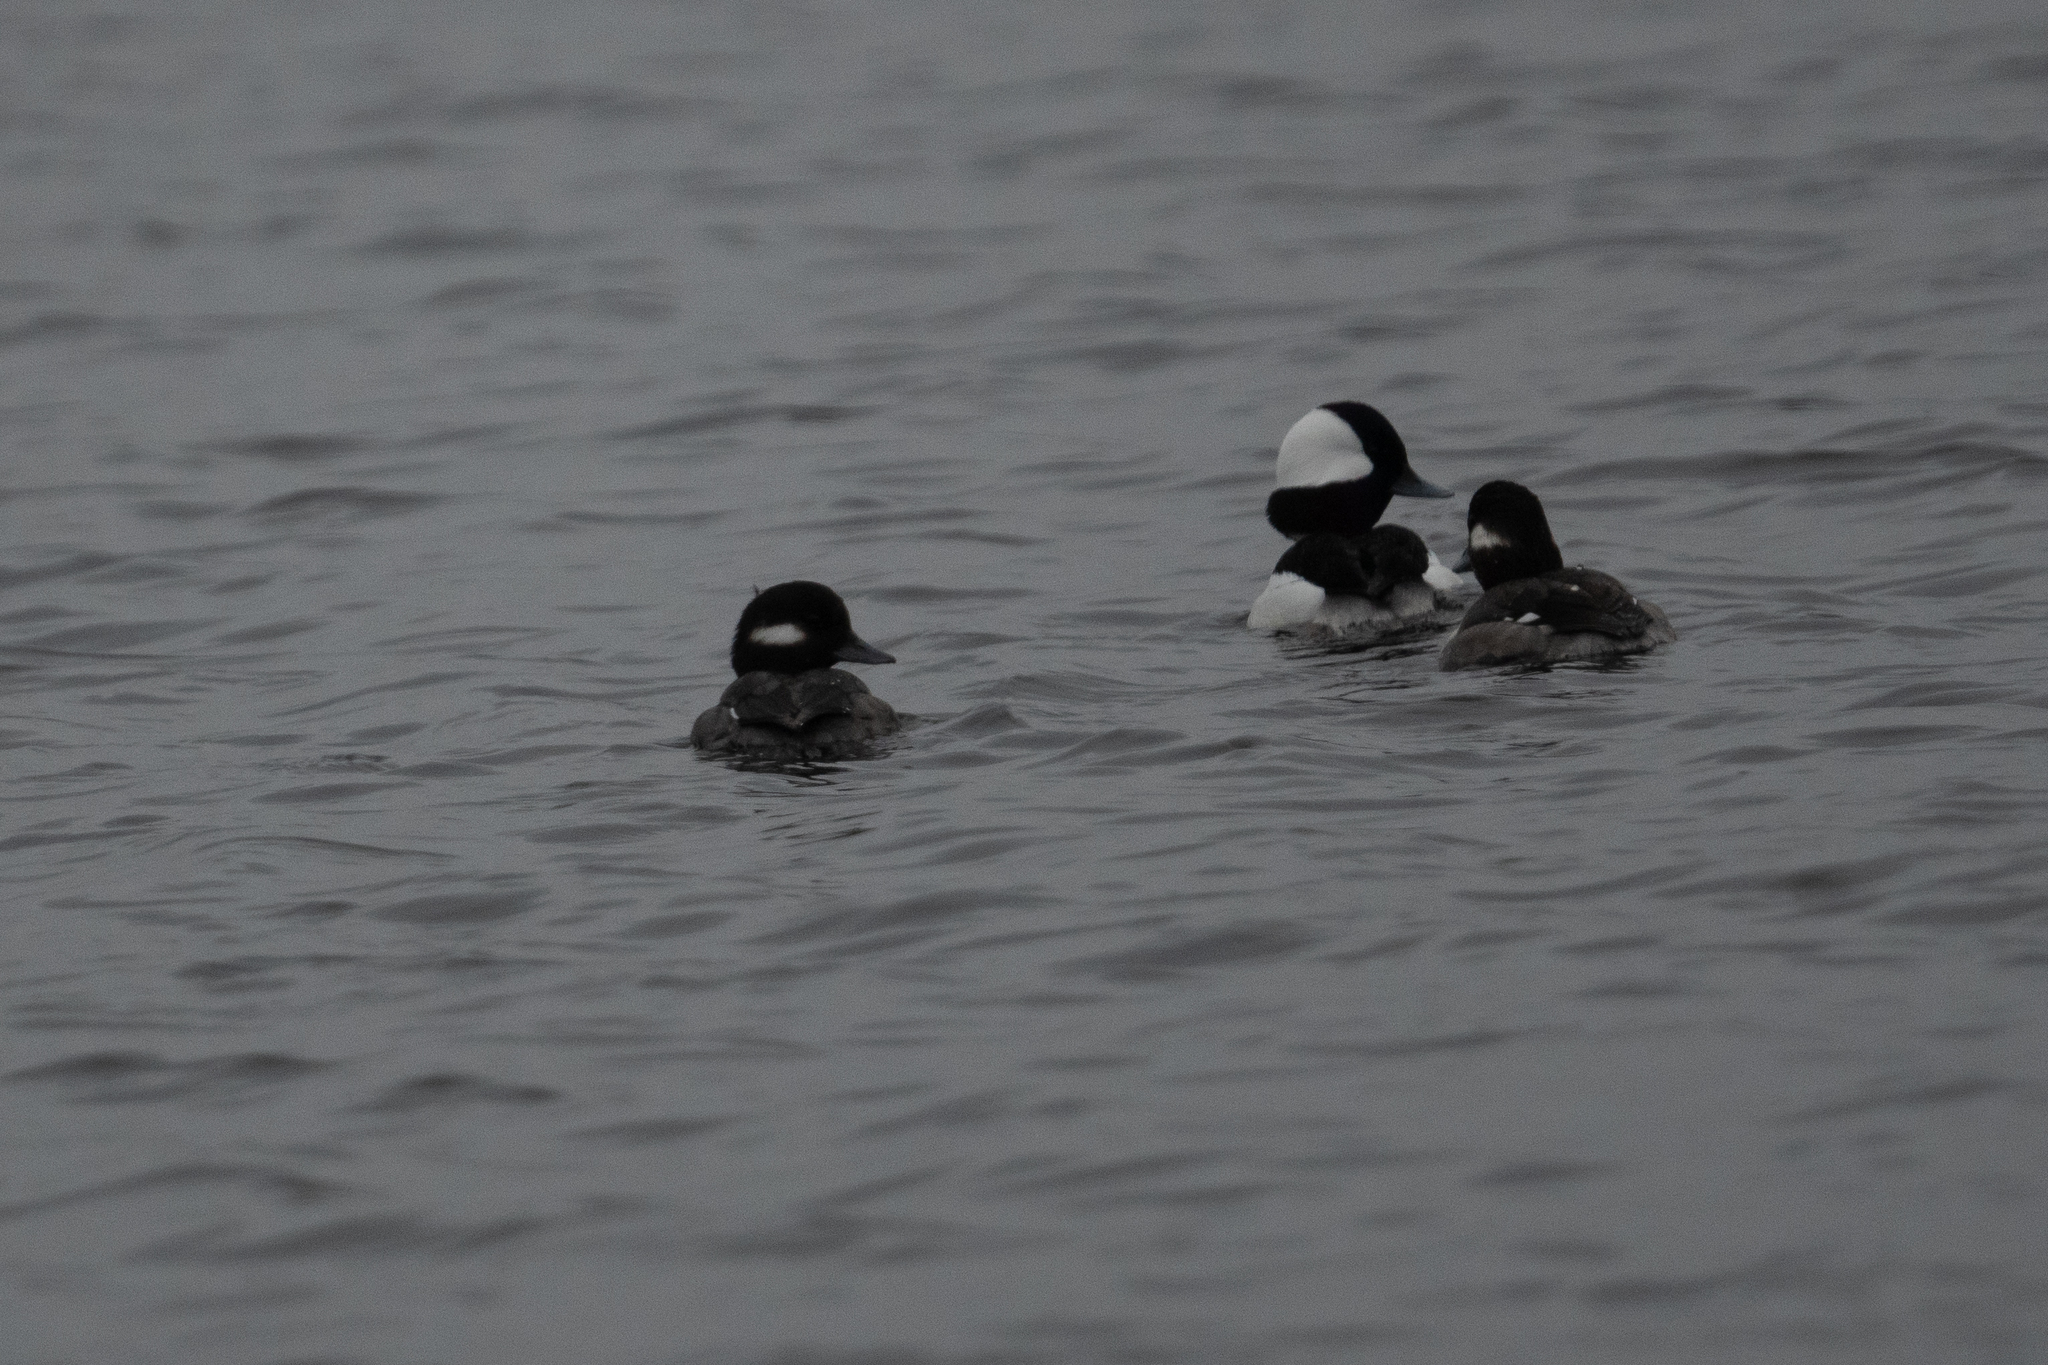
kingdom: Animalia
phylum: Chordata
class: Aves
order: Anseriformes
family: Anatidae
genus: Bucephala
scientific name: Bucephala albeola
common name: Bufflehead
